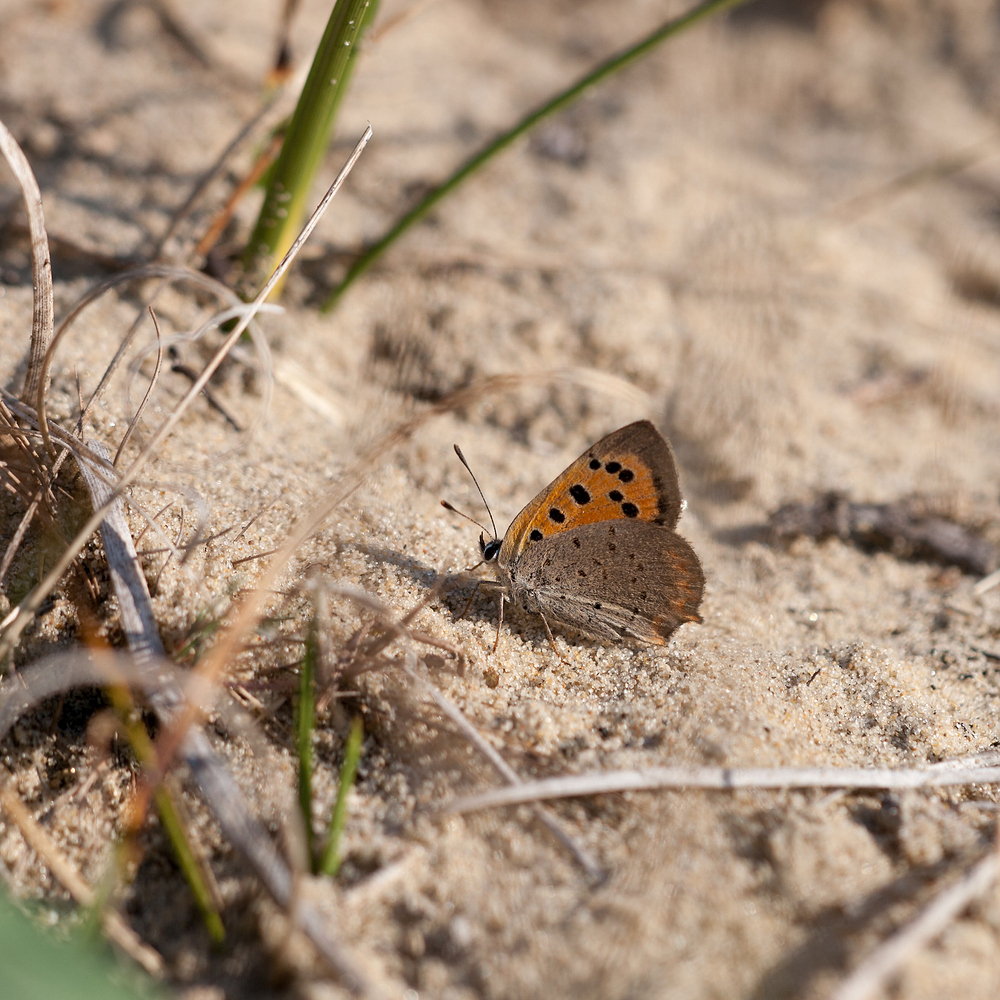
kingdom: Animalia
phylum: Arthropoda
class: Insecta
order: Lepidoptera
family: Lycaenidae
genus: Lycaena
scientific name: Lycaena phlaeas
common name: Small copper
